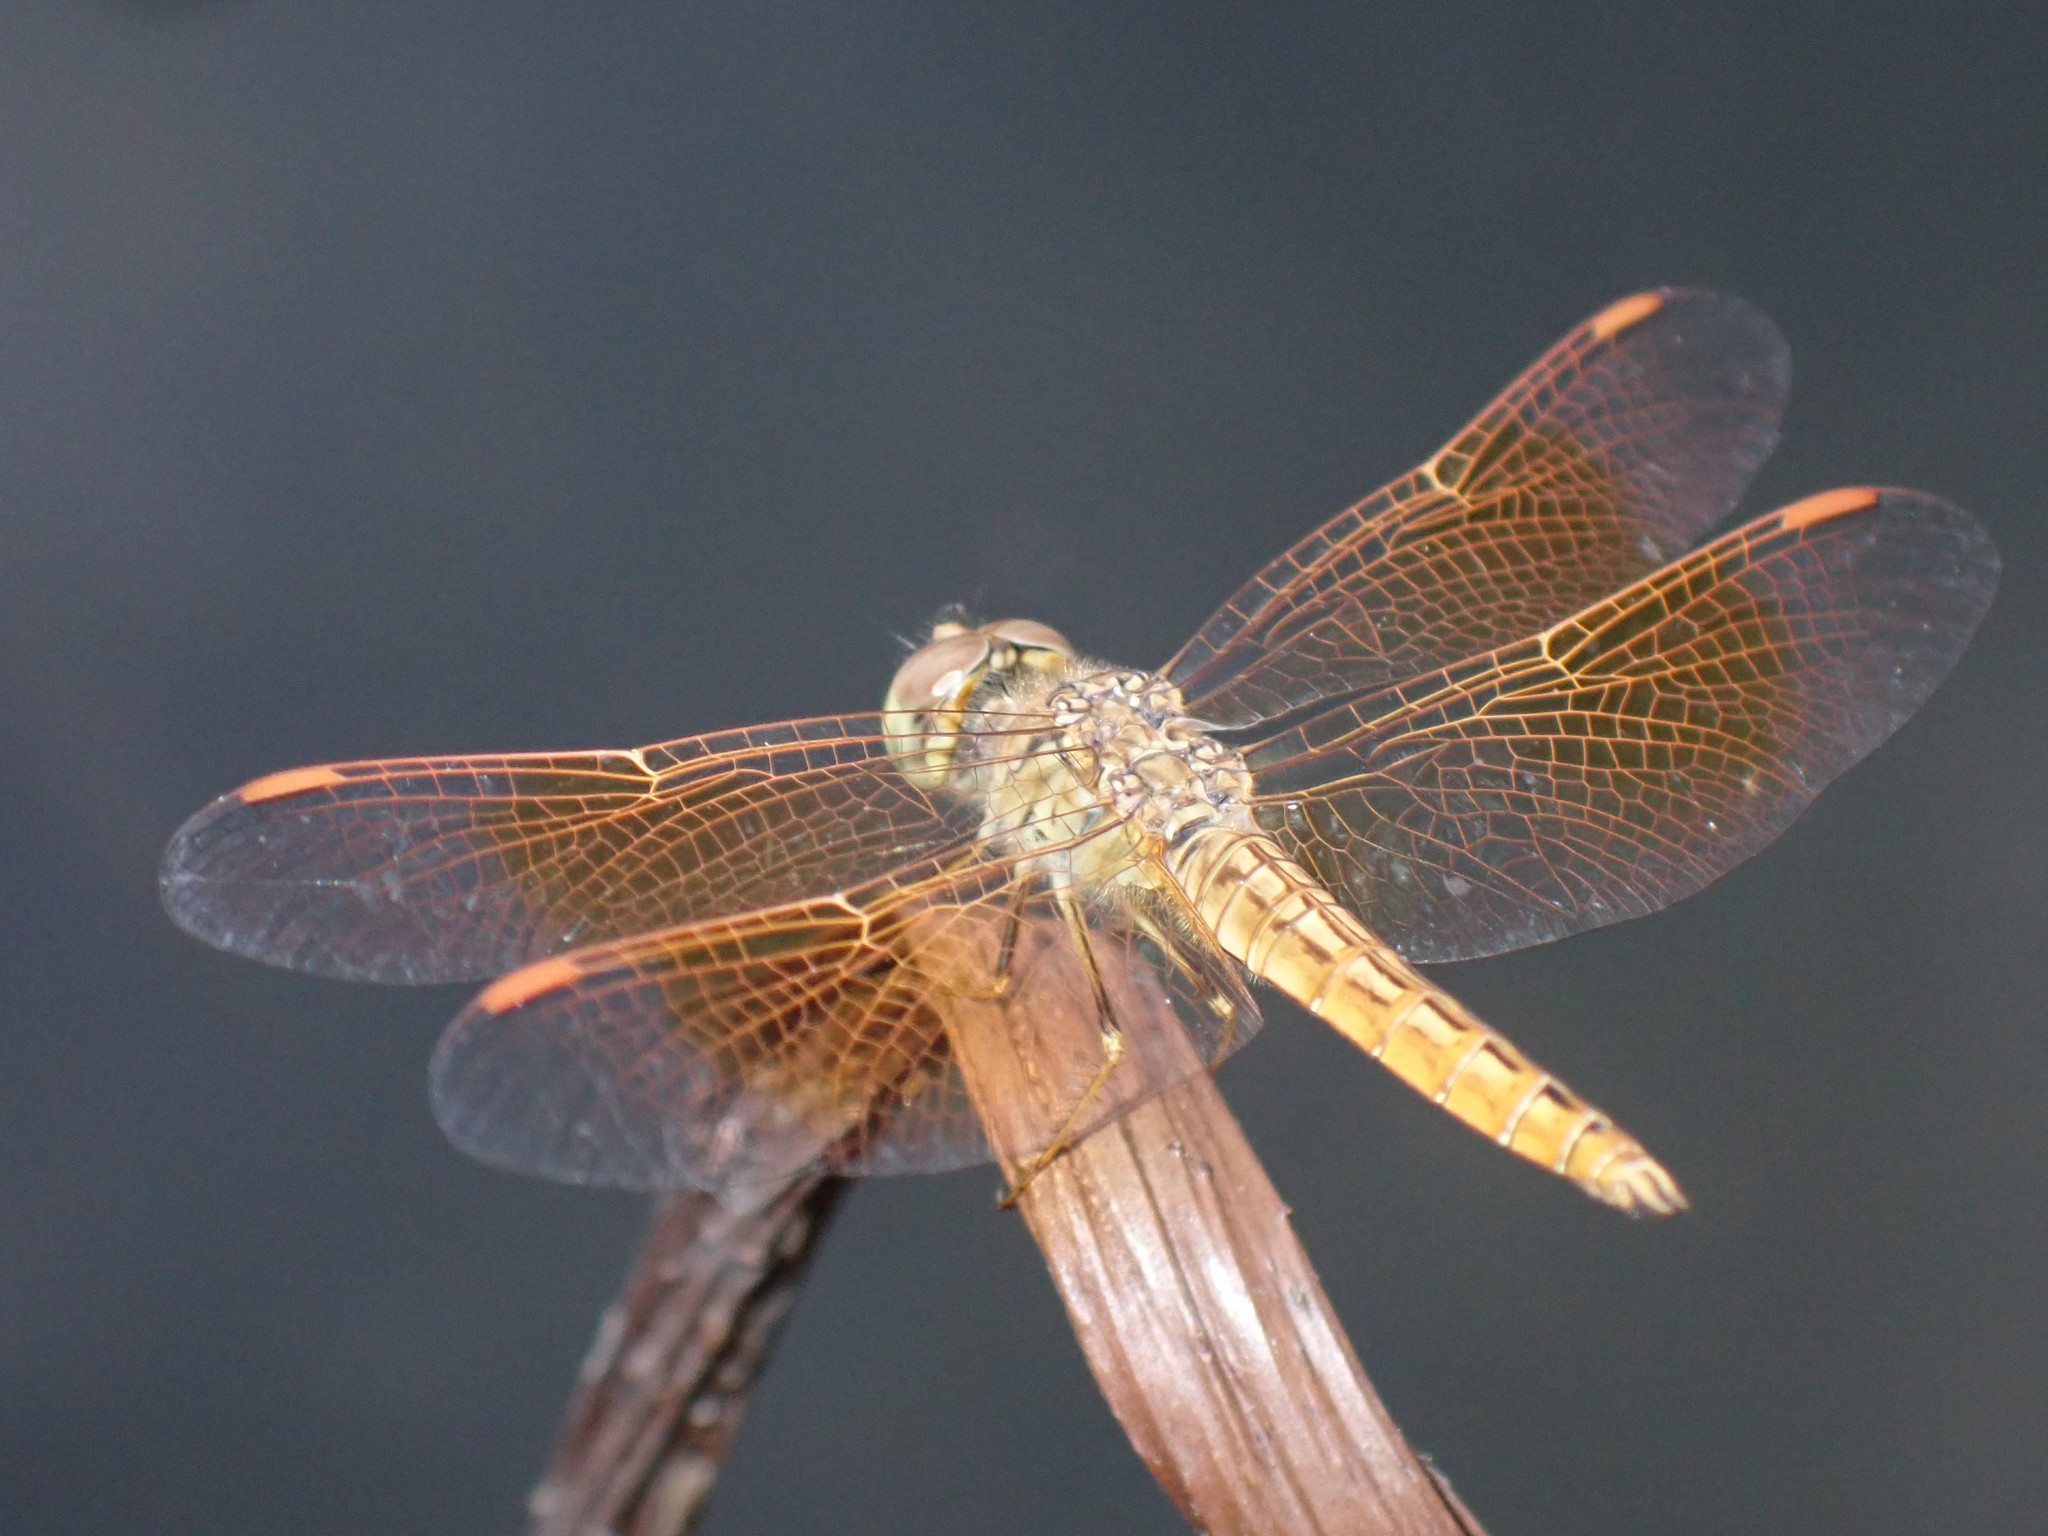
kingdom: Animalia
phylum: Arthropoda
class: Insecta
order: Odonata
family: Libellulidae
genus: Brachythemis
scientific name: Brachythemis contaminata
